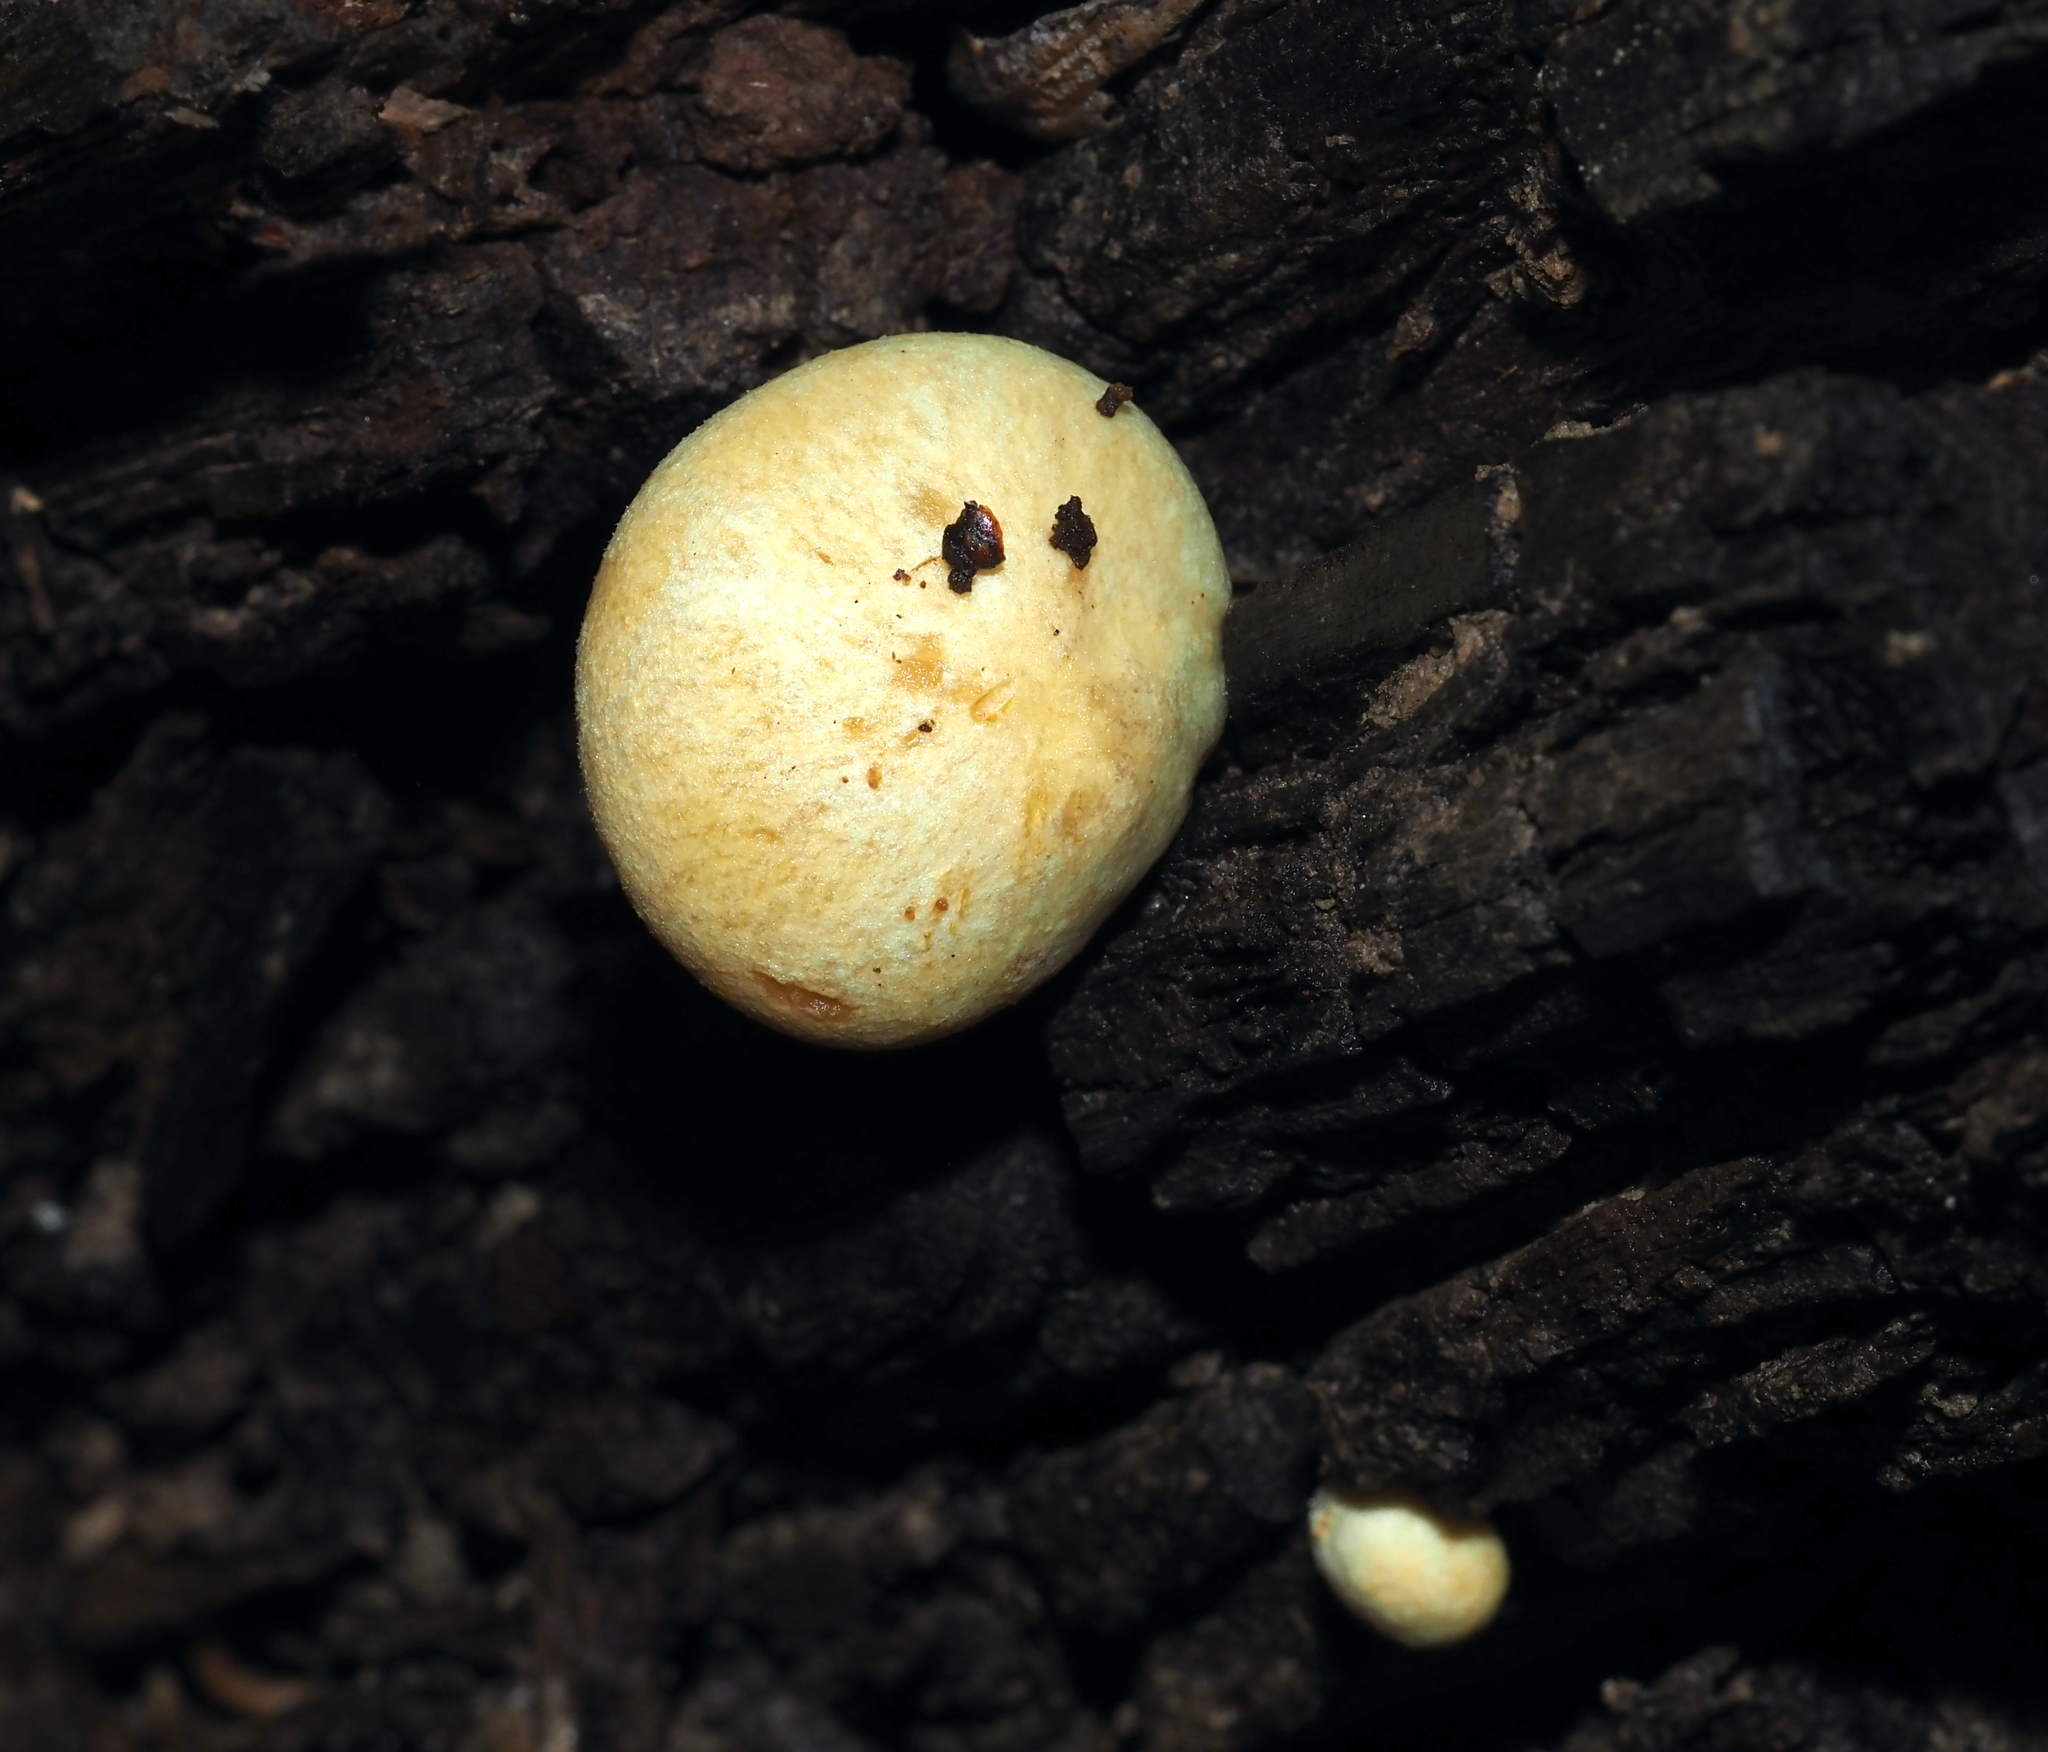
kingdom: Fungi
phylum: Basidiomycota
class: Agaricomycetes
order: Agaricales
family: Tricholomataceae
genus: Tricholomopsis
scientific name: Tricholomopsis sulfureoides
